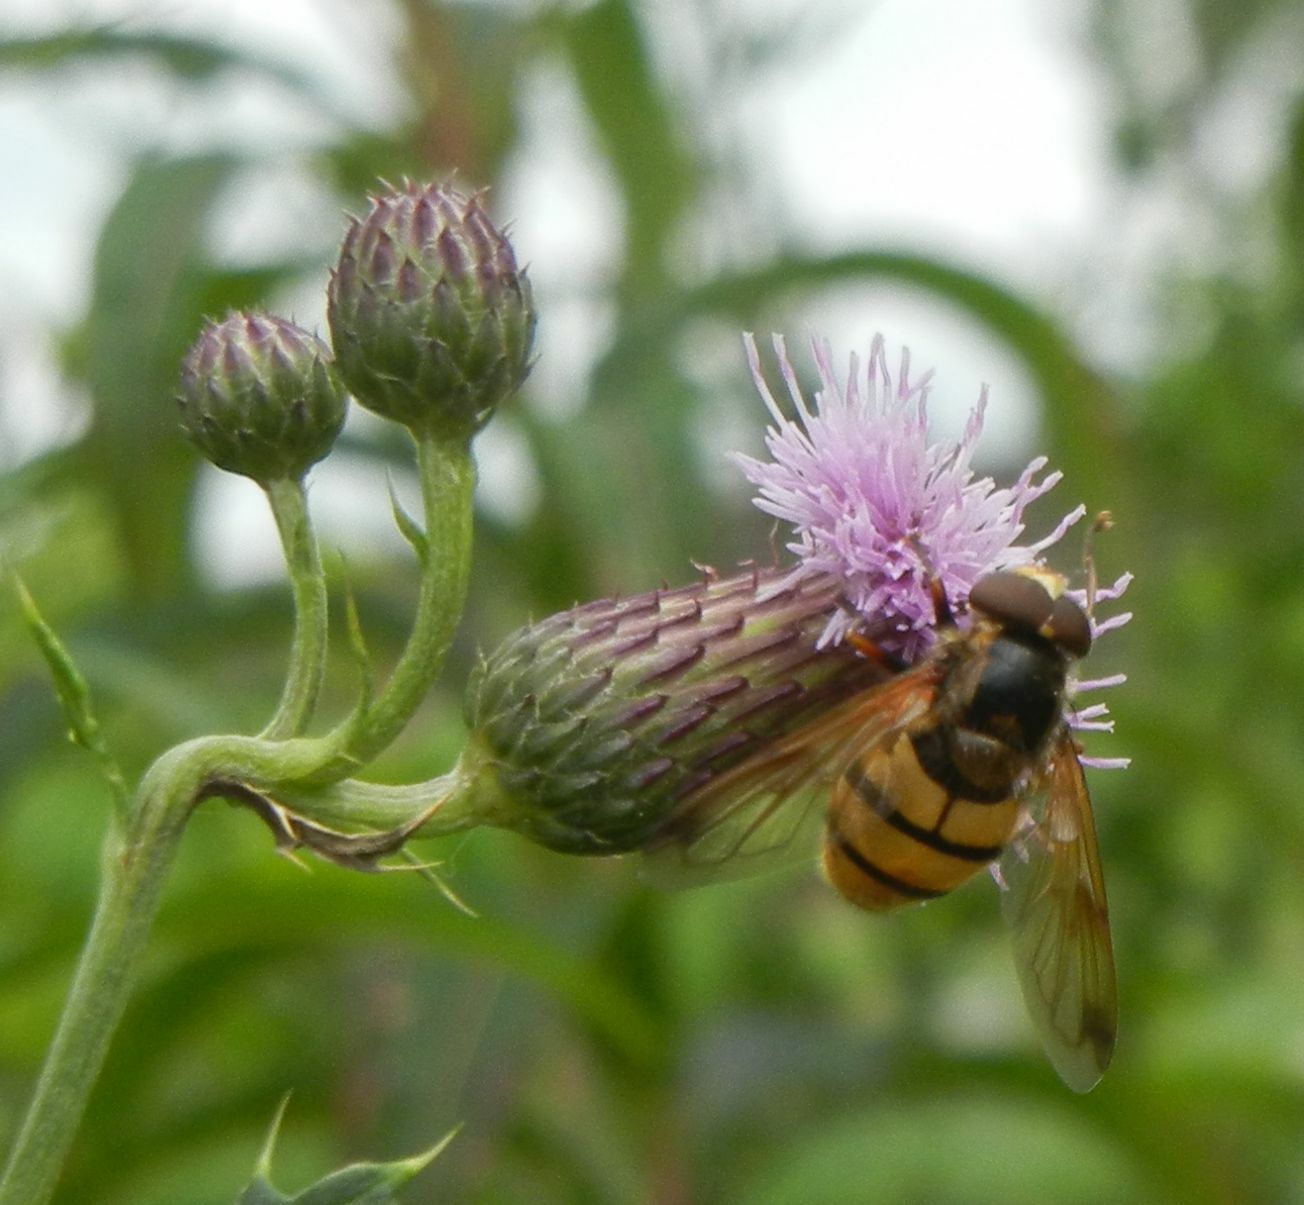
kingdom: Animalia
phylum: Arthropoda
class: Insecta
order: Diptera
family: Syrphidae
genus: Volucella
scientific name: Volucella inanis
